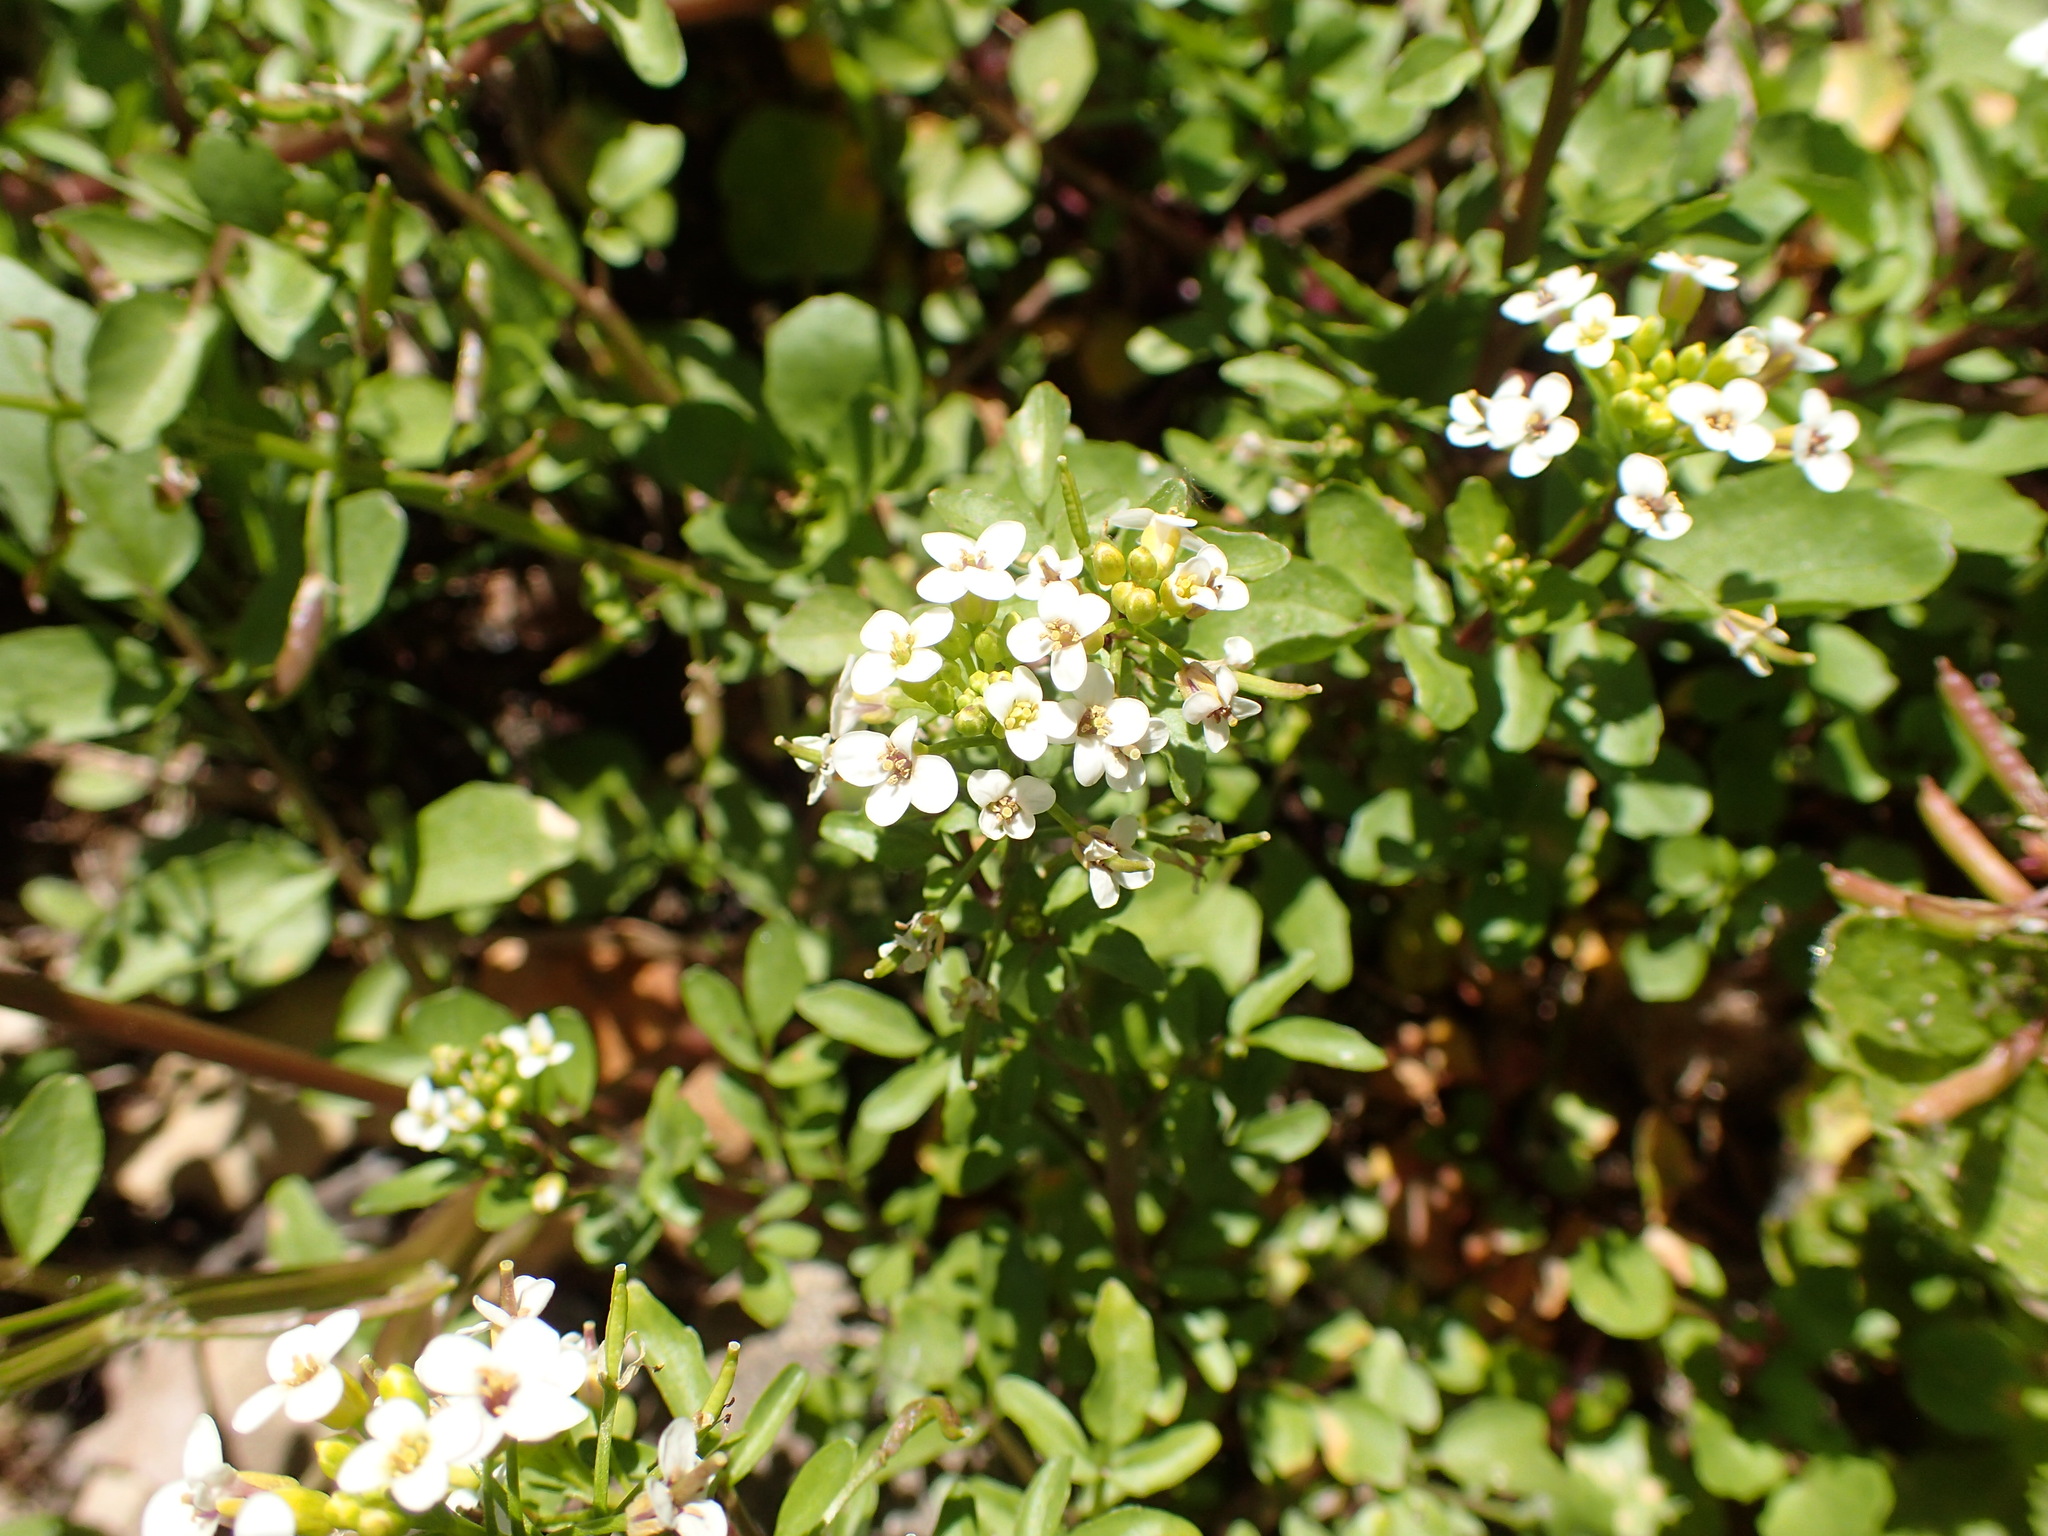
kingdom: Plantae
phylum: Tracheophyta
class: Magnoliopsida
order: Brassicales
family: Brassicaceae
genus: Nasturtium
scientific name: Nasturtium officinale
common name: Watercress
